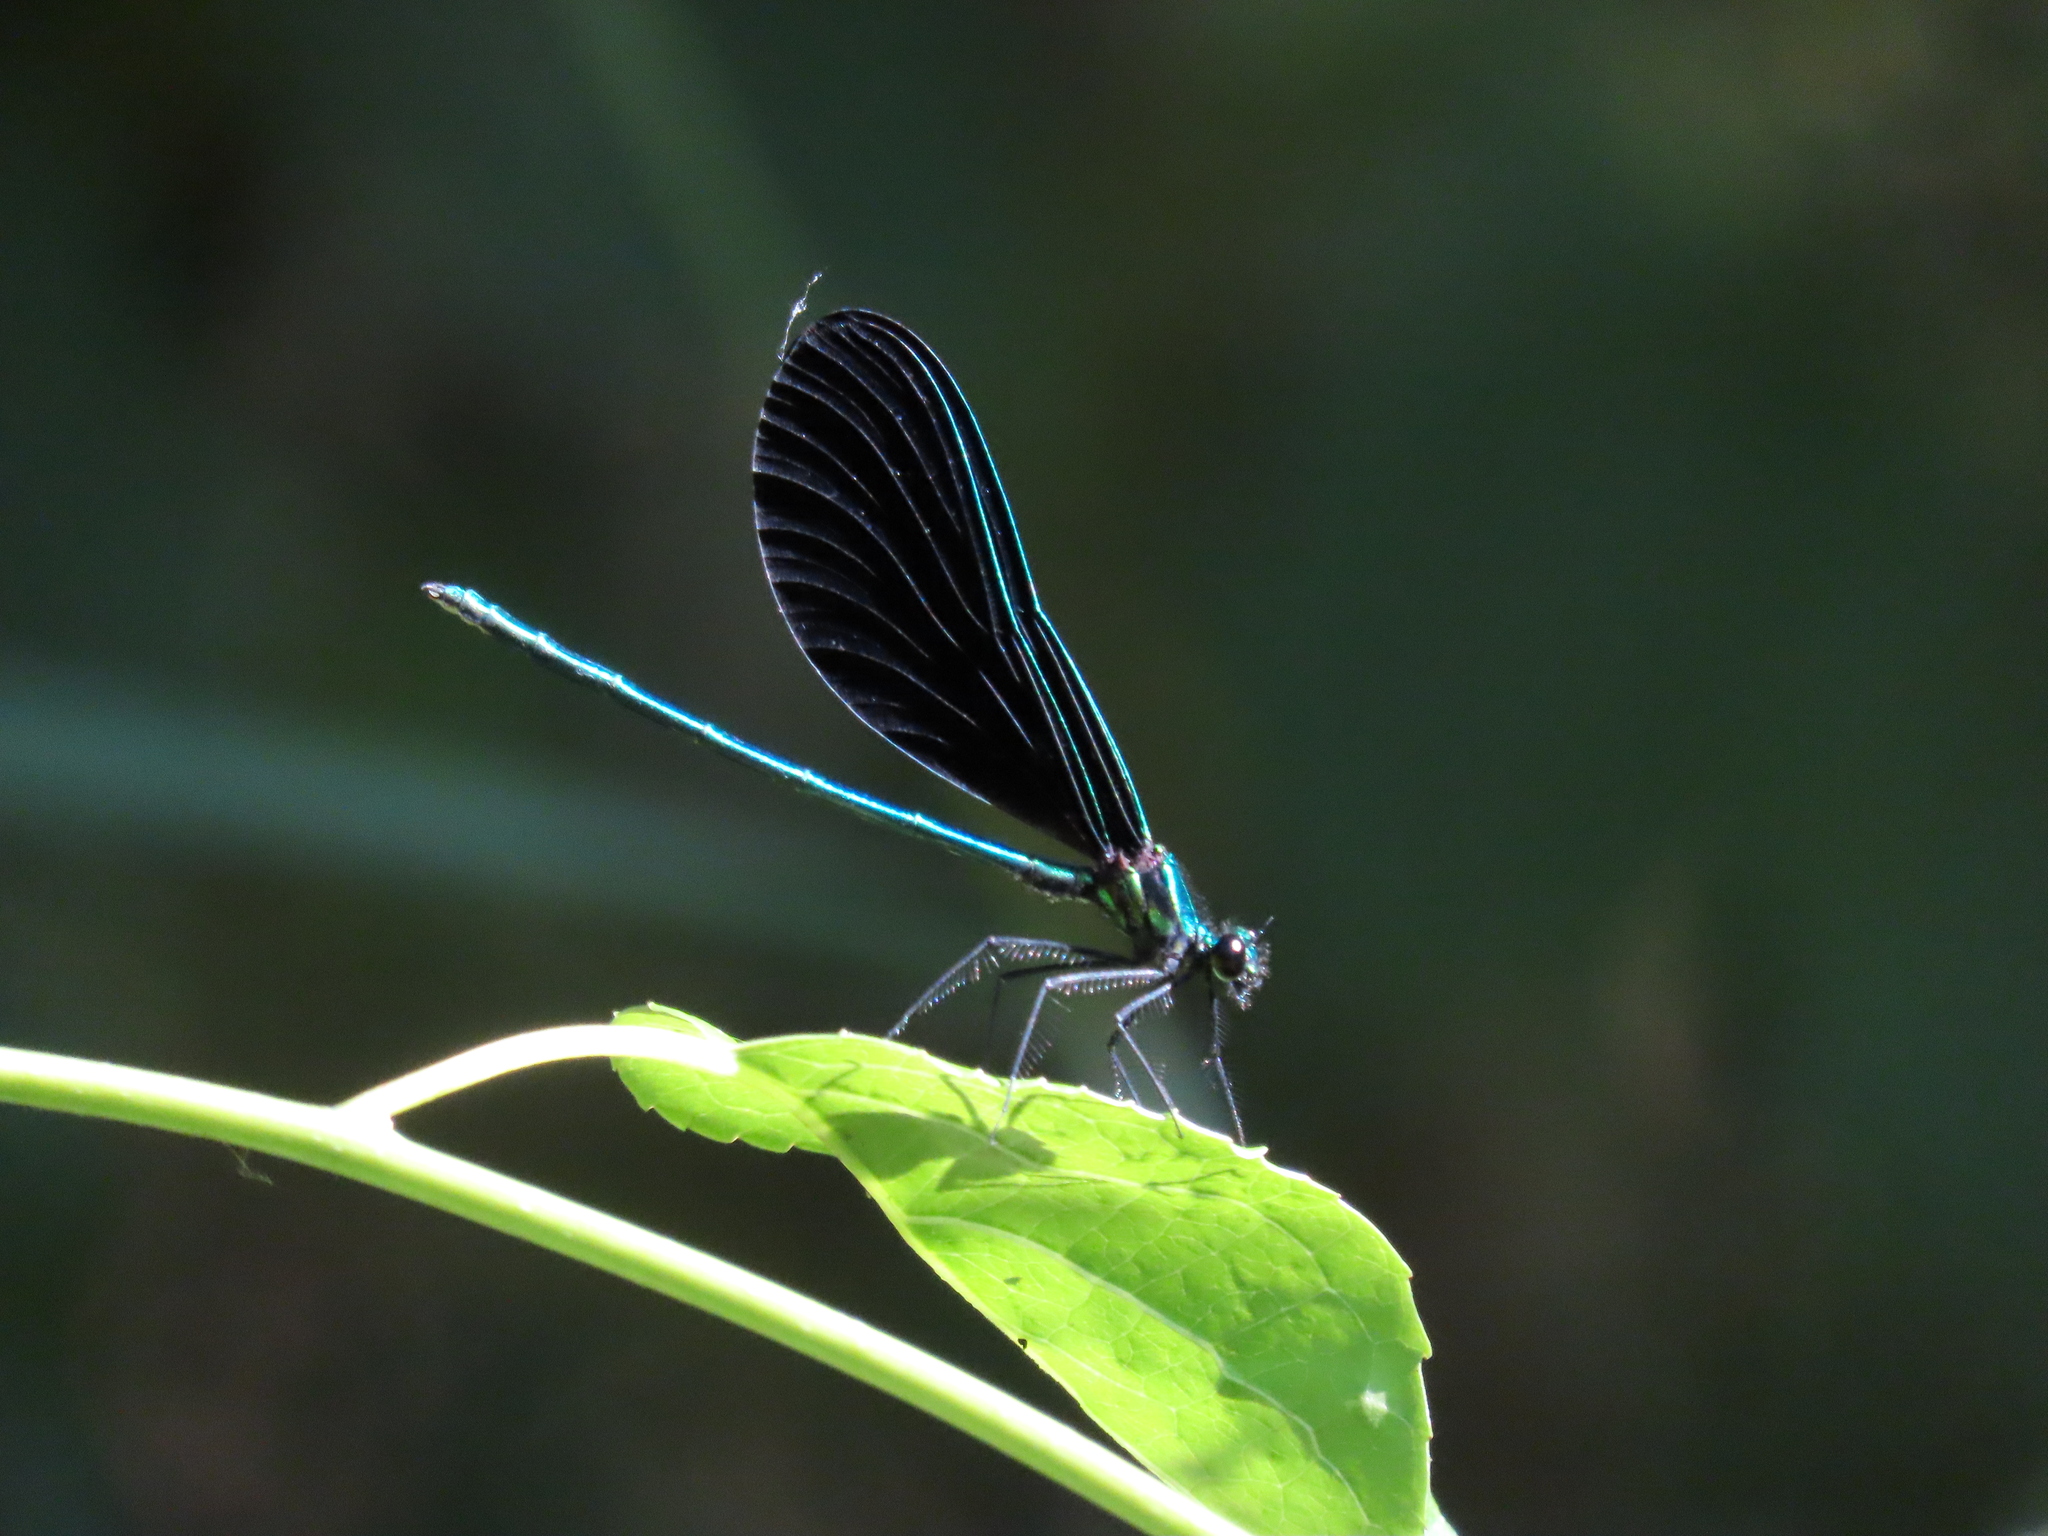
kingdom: Animalia
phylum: Arthropoda
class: Insecta
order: Odonata
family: Calopterygidae
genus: Calopteryx
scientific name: Calopteryx maculata
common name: Ebony jewelwing
